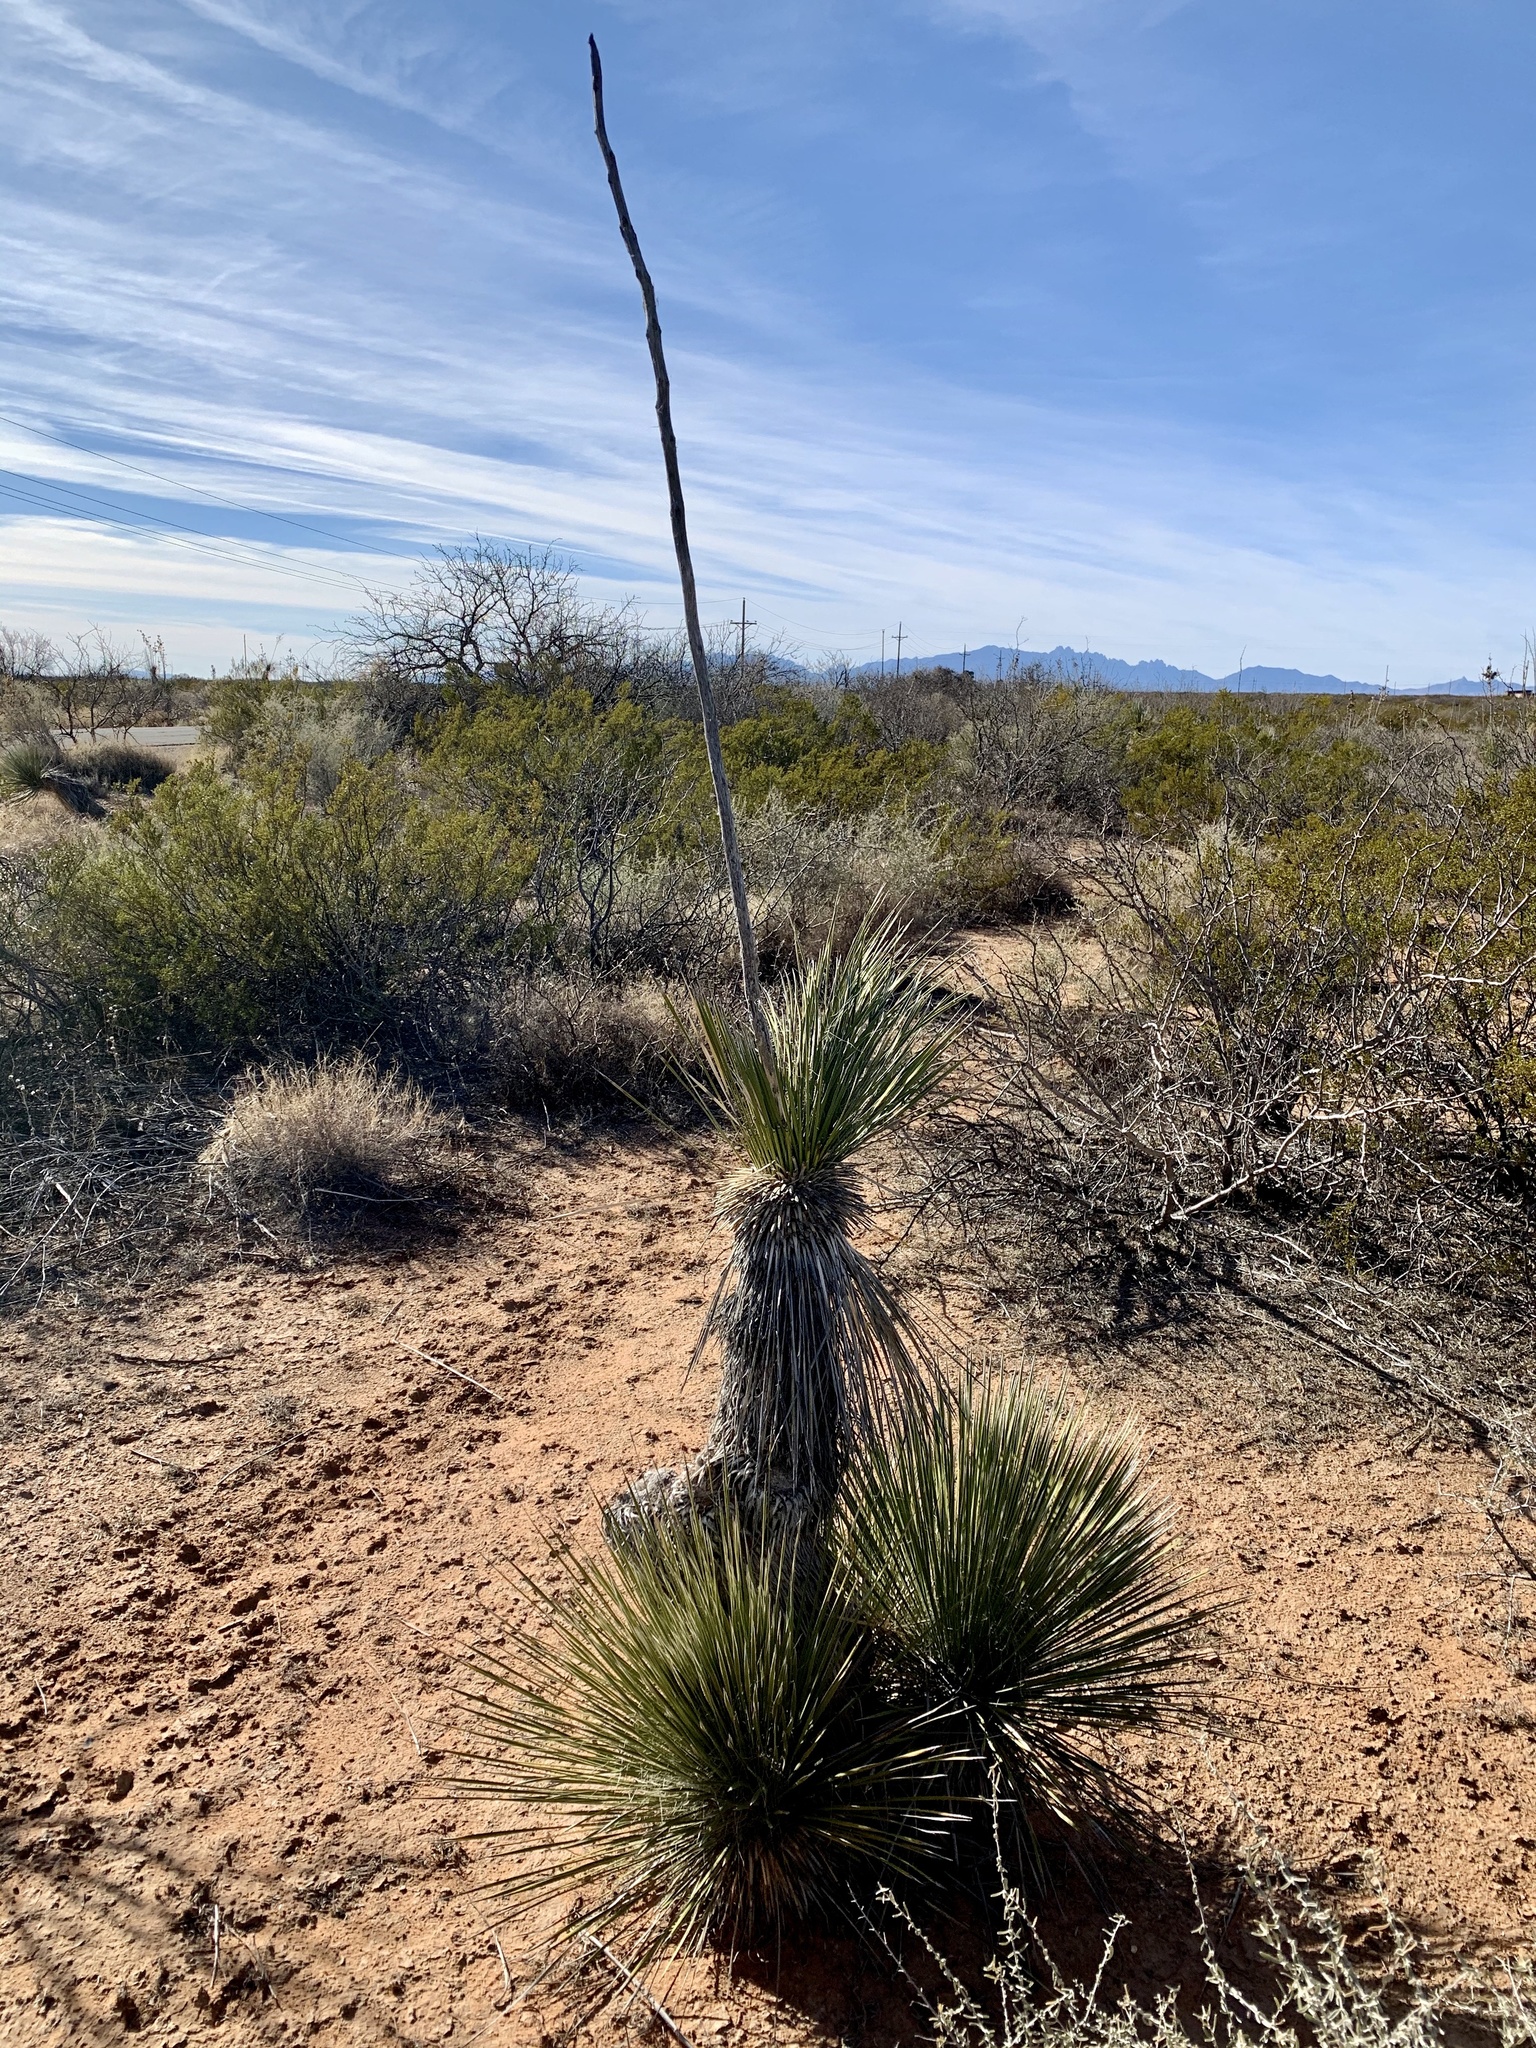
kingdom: Plantae
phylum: Tracheophyta
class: Liliopsida
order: Asparagales
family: Asparagaceae
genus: Yucca
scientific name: Yucca elata
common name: Palmella
